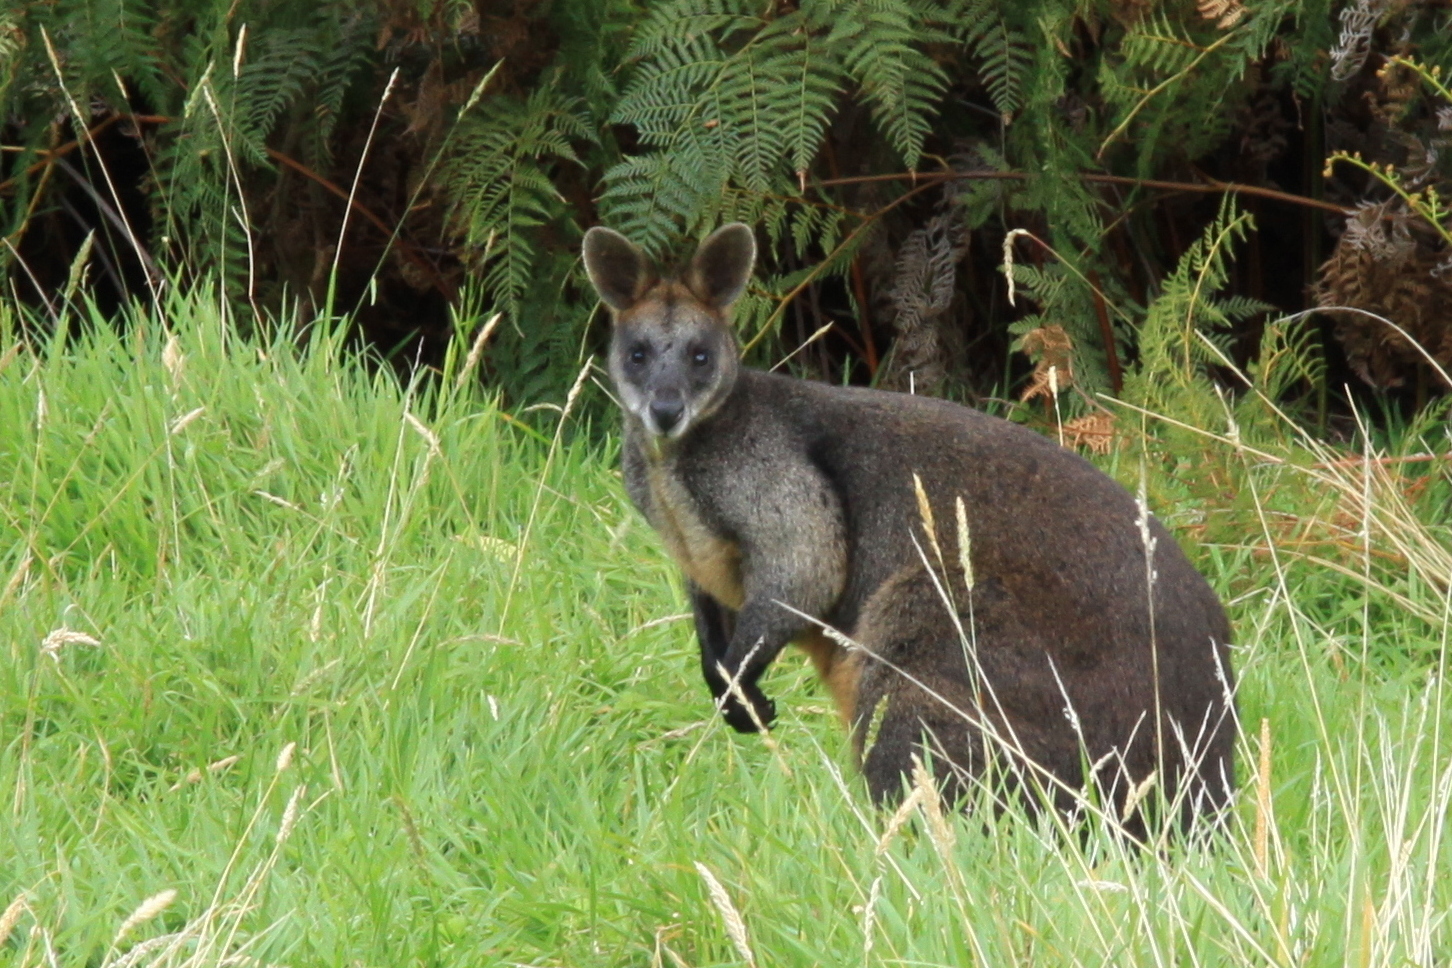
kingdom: Animalia
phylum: Chordata
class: Mammalia
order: Diprotodontia
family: Macropodidae
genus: Wallabia
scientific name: Wallabia bicolor
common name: Swamp wallaby
